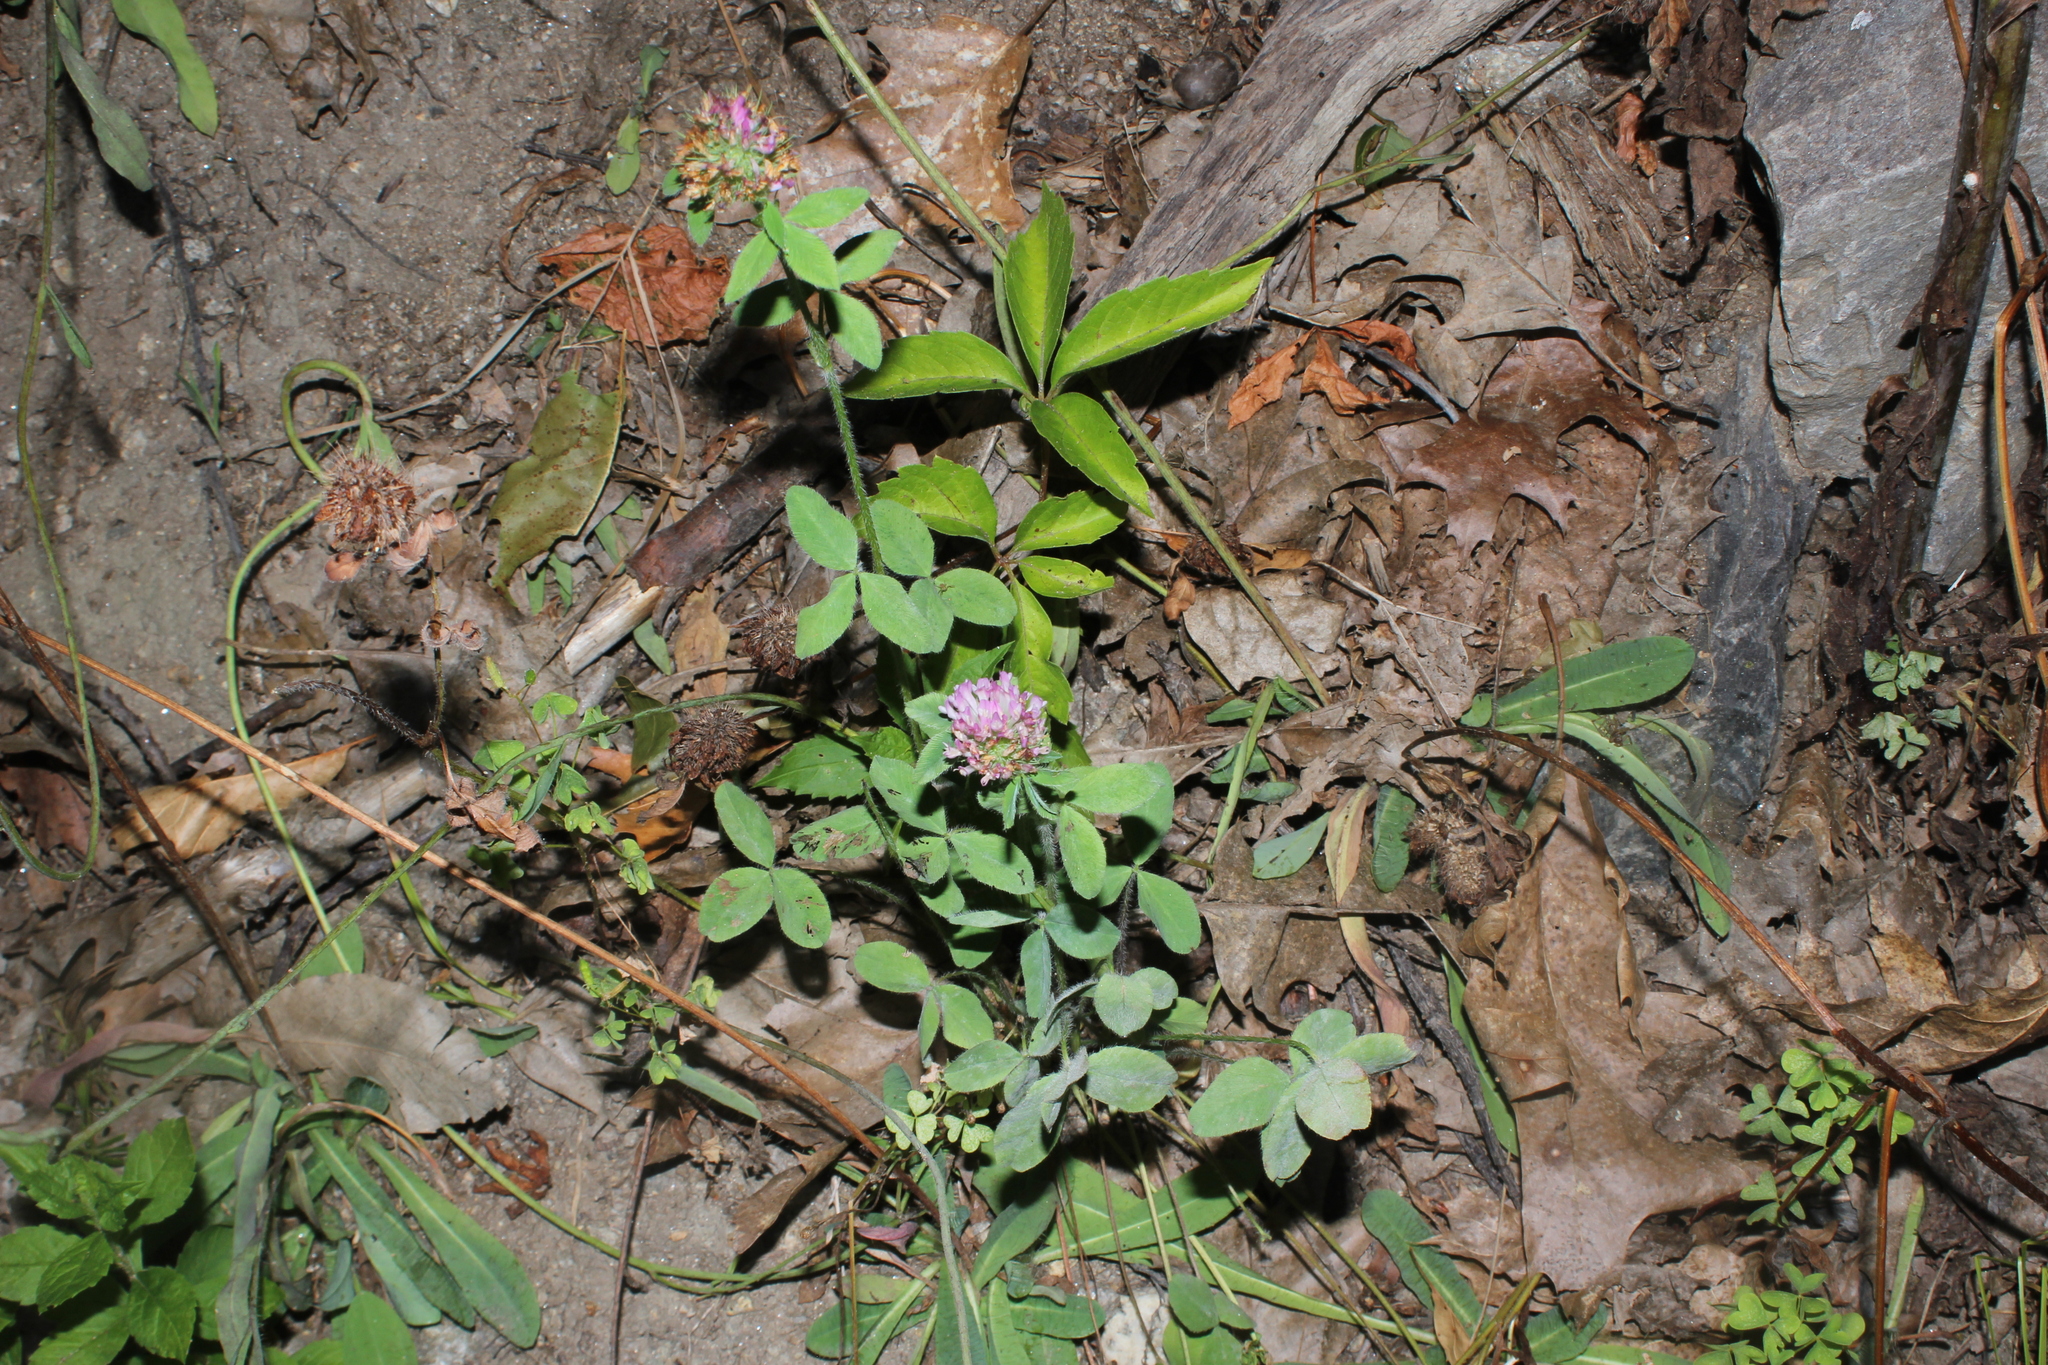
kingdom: Plantae
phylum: Tracheophyta
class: Magnoliopsida
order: Fabales
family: Fabaceae
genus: Trifolium
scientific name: Trifolium pratense
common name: Red clover
